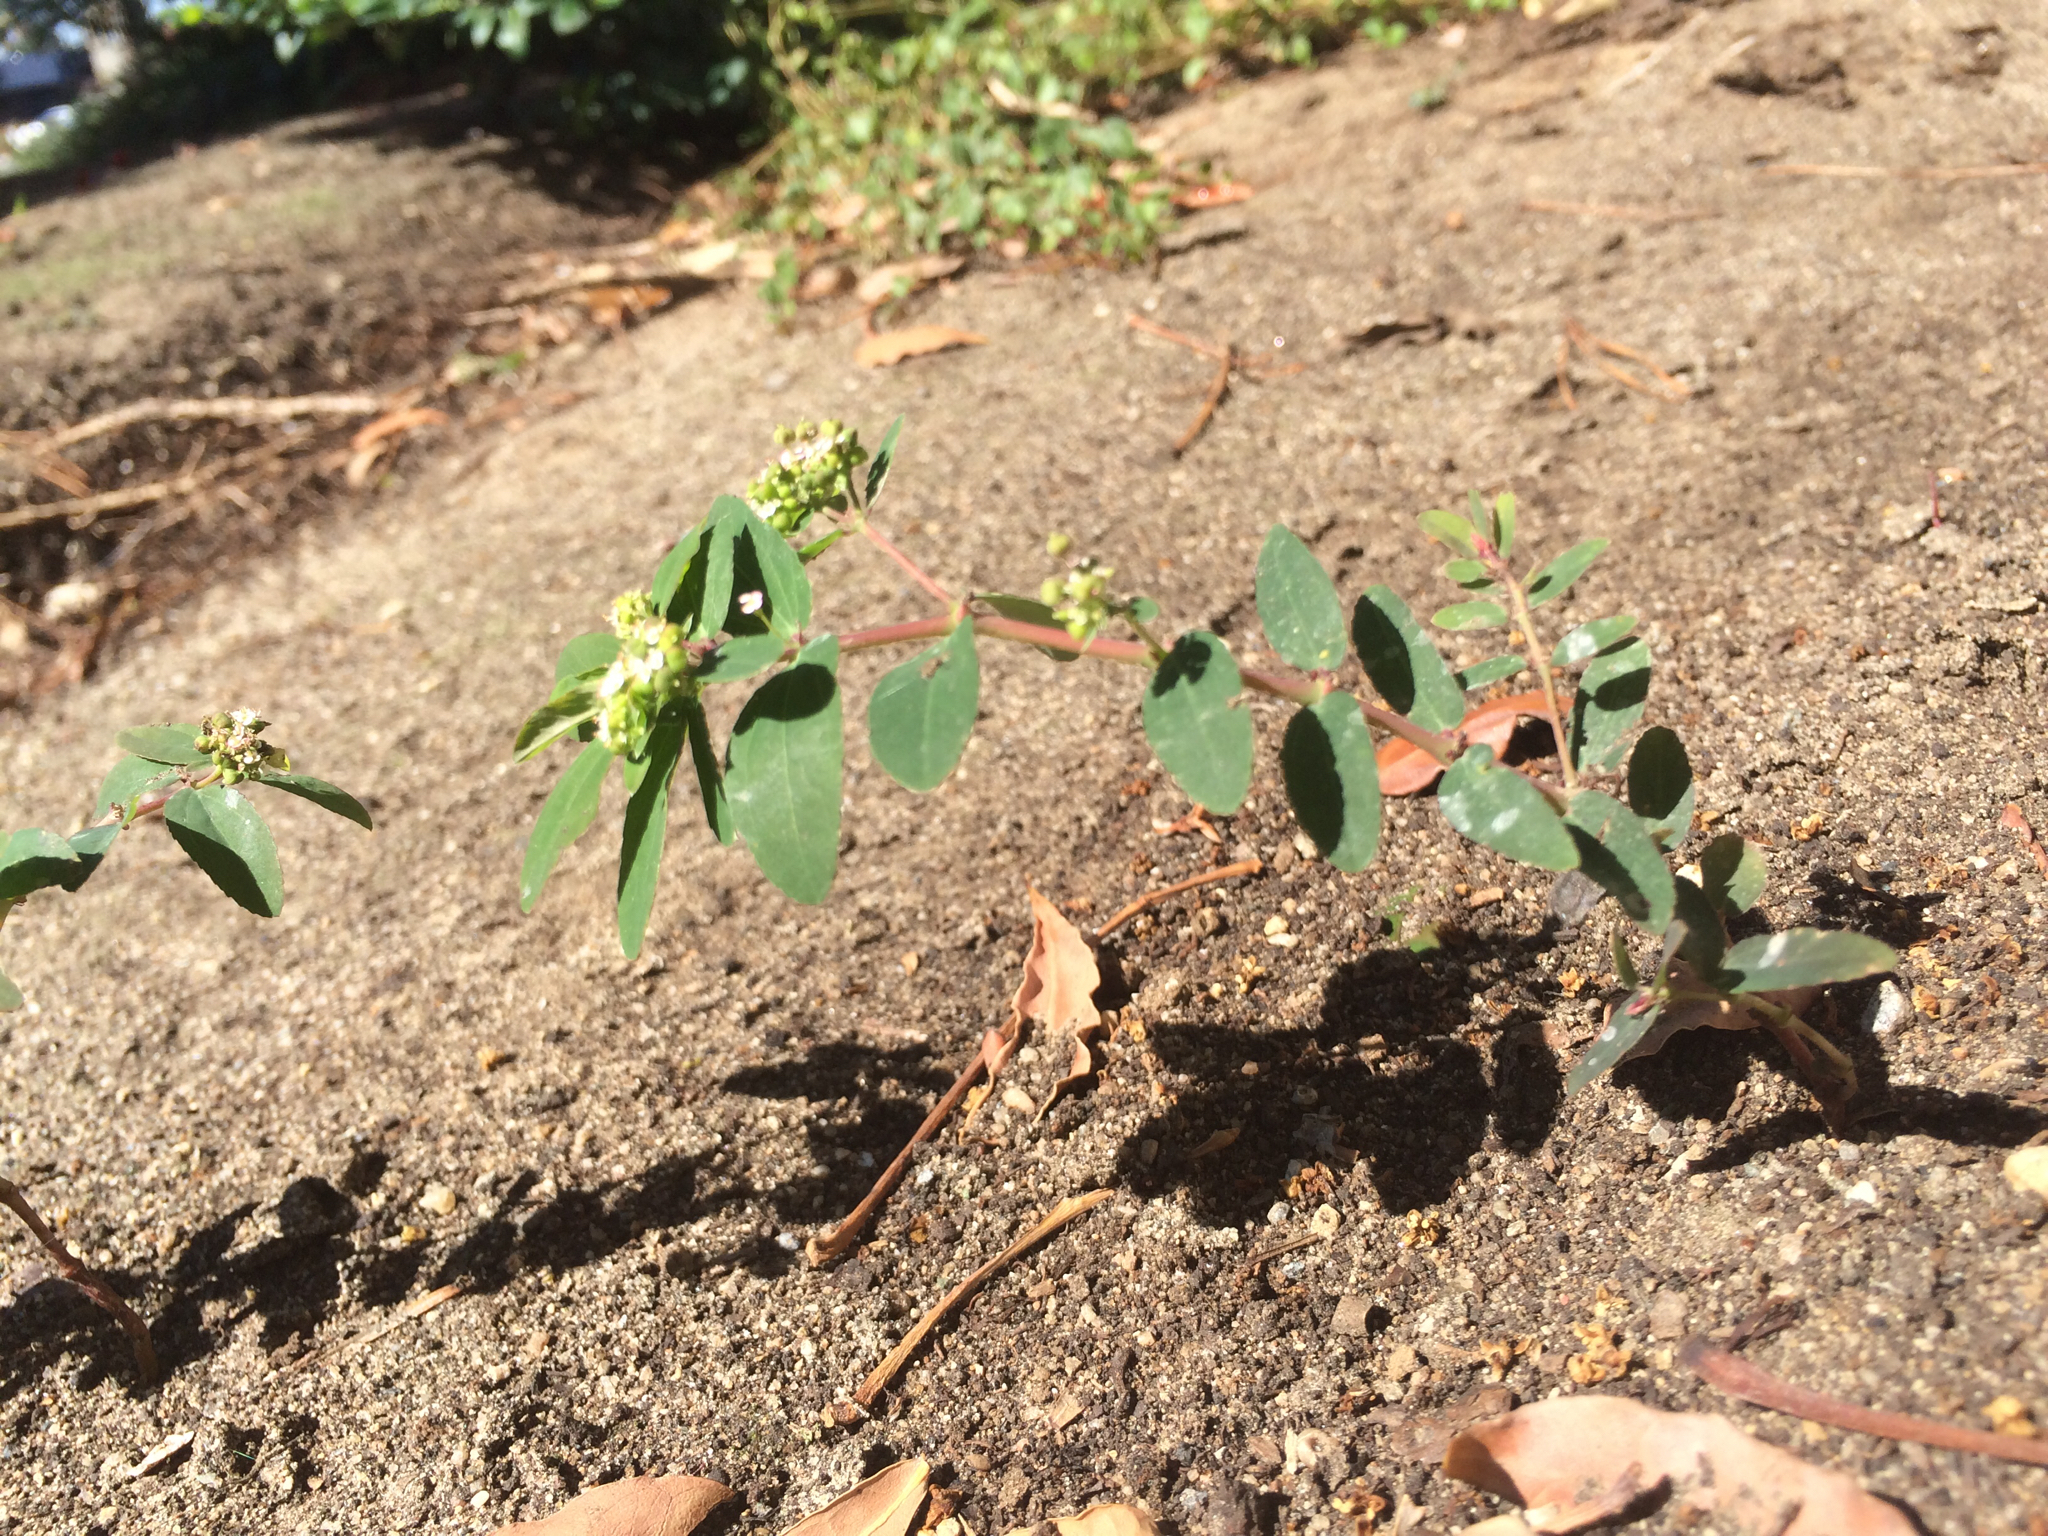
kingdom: Plantae
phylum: Tracheophyta
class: Magnoliopsida
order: Malpighiales
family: Euphorbiaceae
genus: Euphorbia
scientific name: Euphorbia hypericifolia
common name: Graceful sandmat
